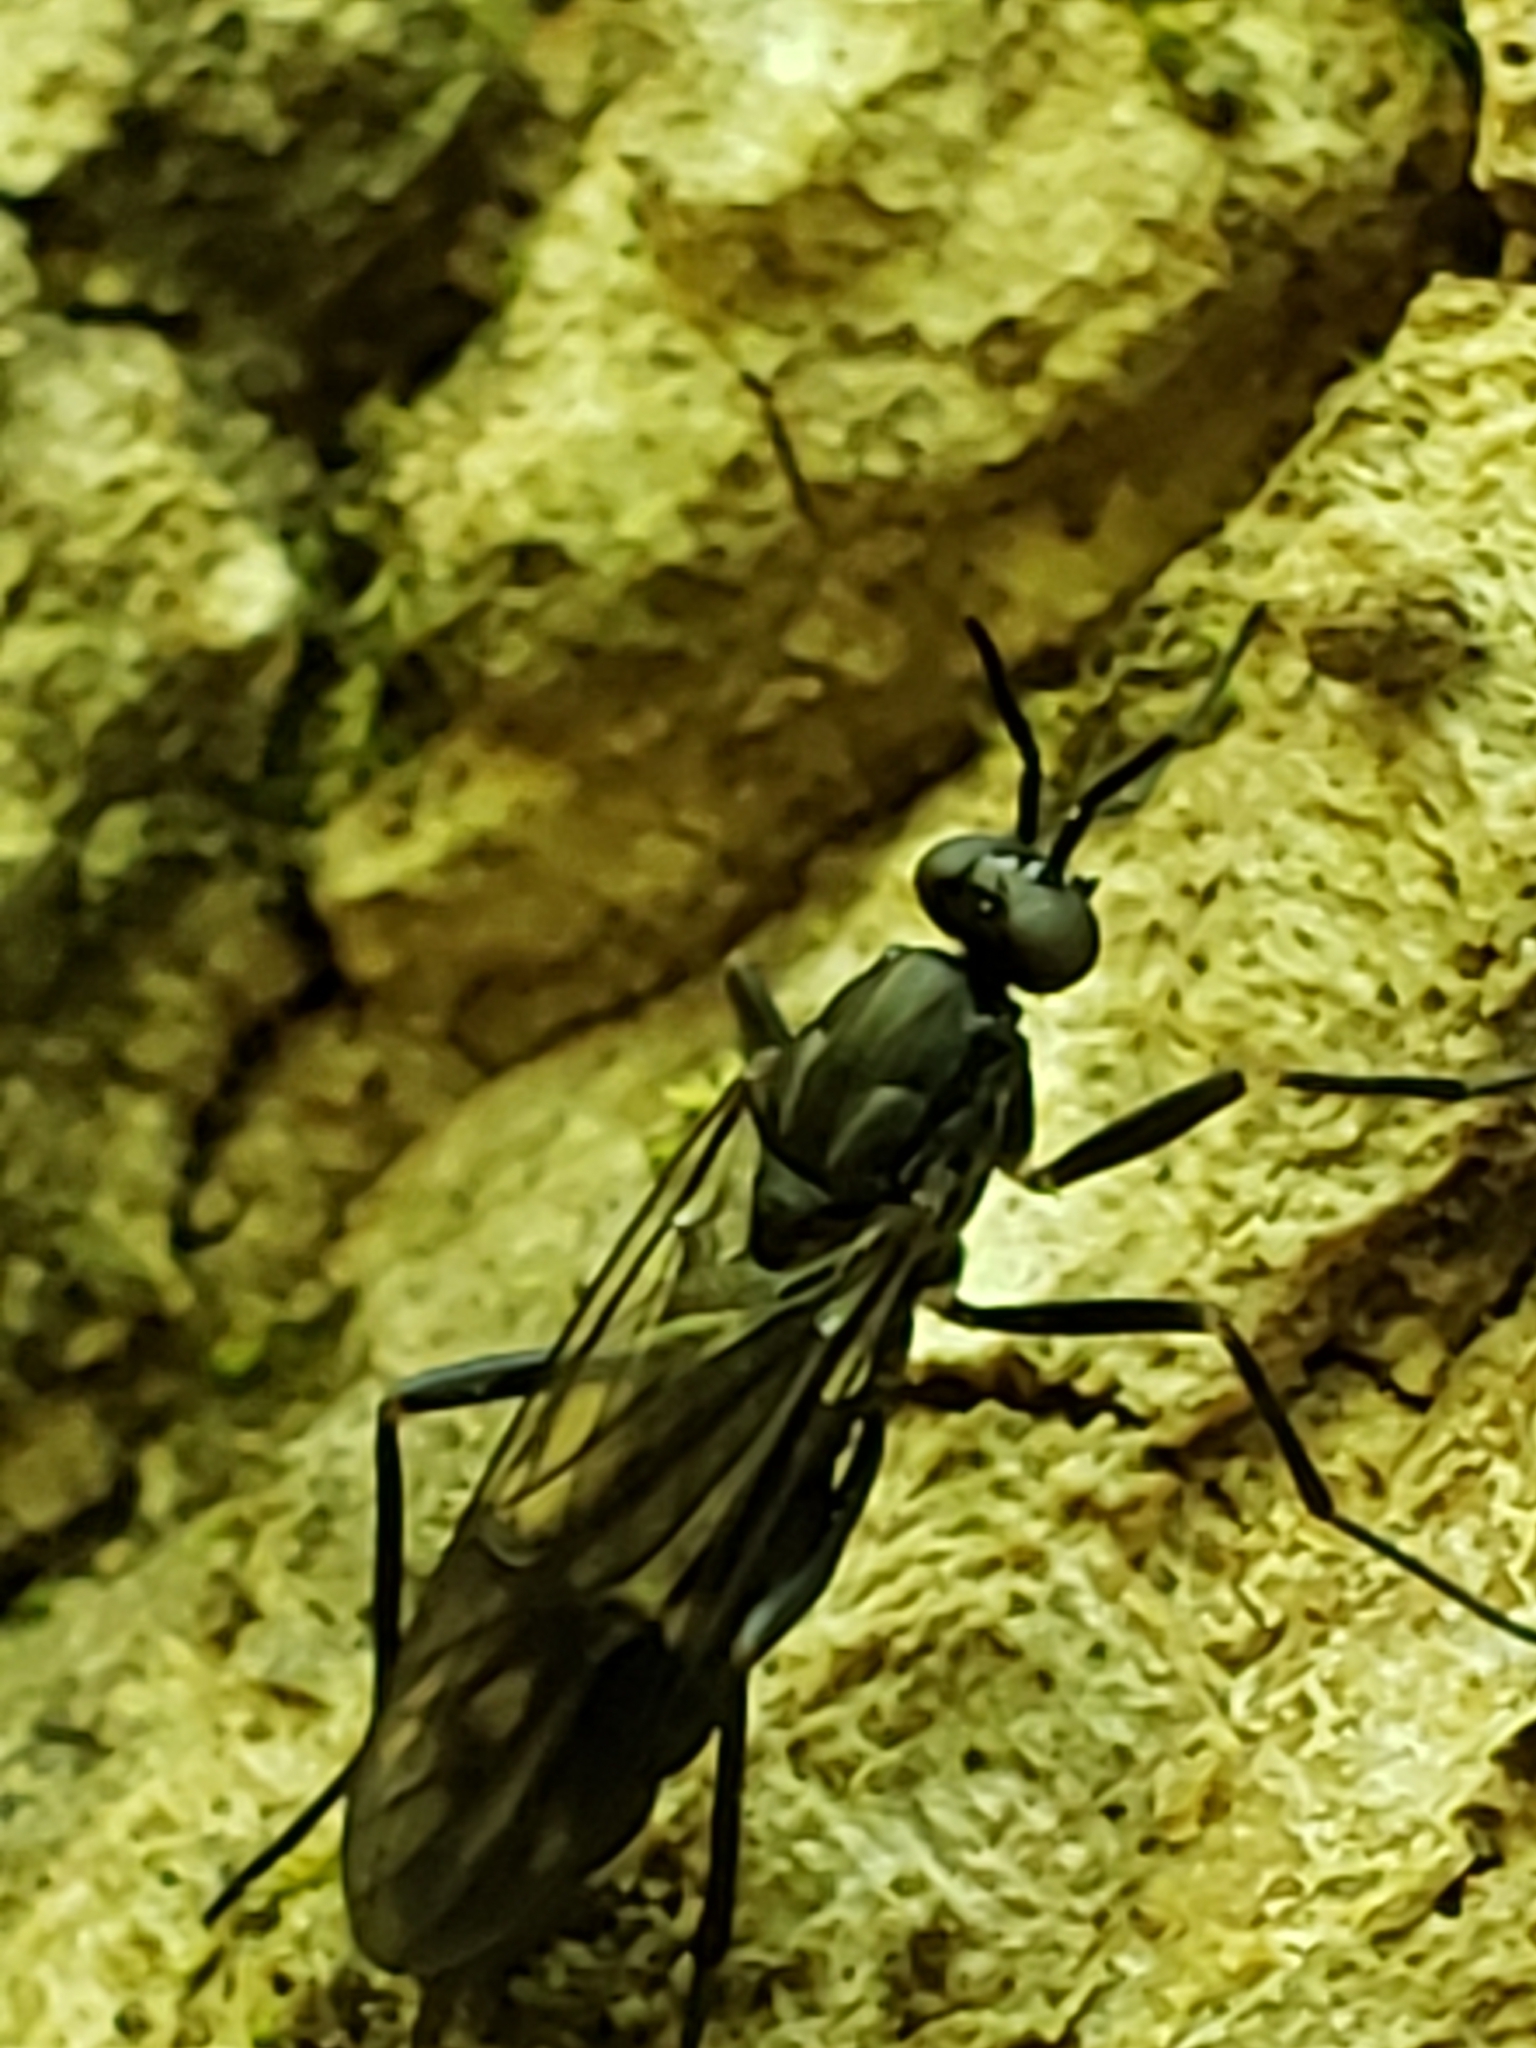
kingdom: Animalia
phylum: Arthropoda
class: Insecta
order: Diptera
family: Xylophagidae
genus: Xylophagus
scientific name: Xylophagus reflectens
